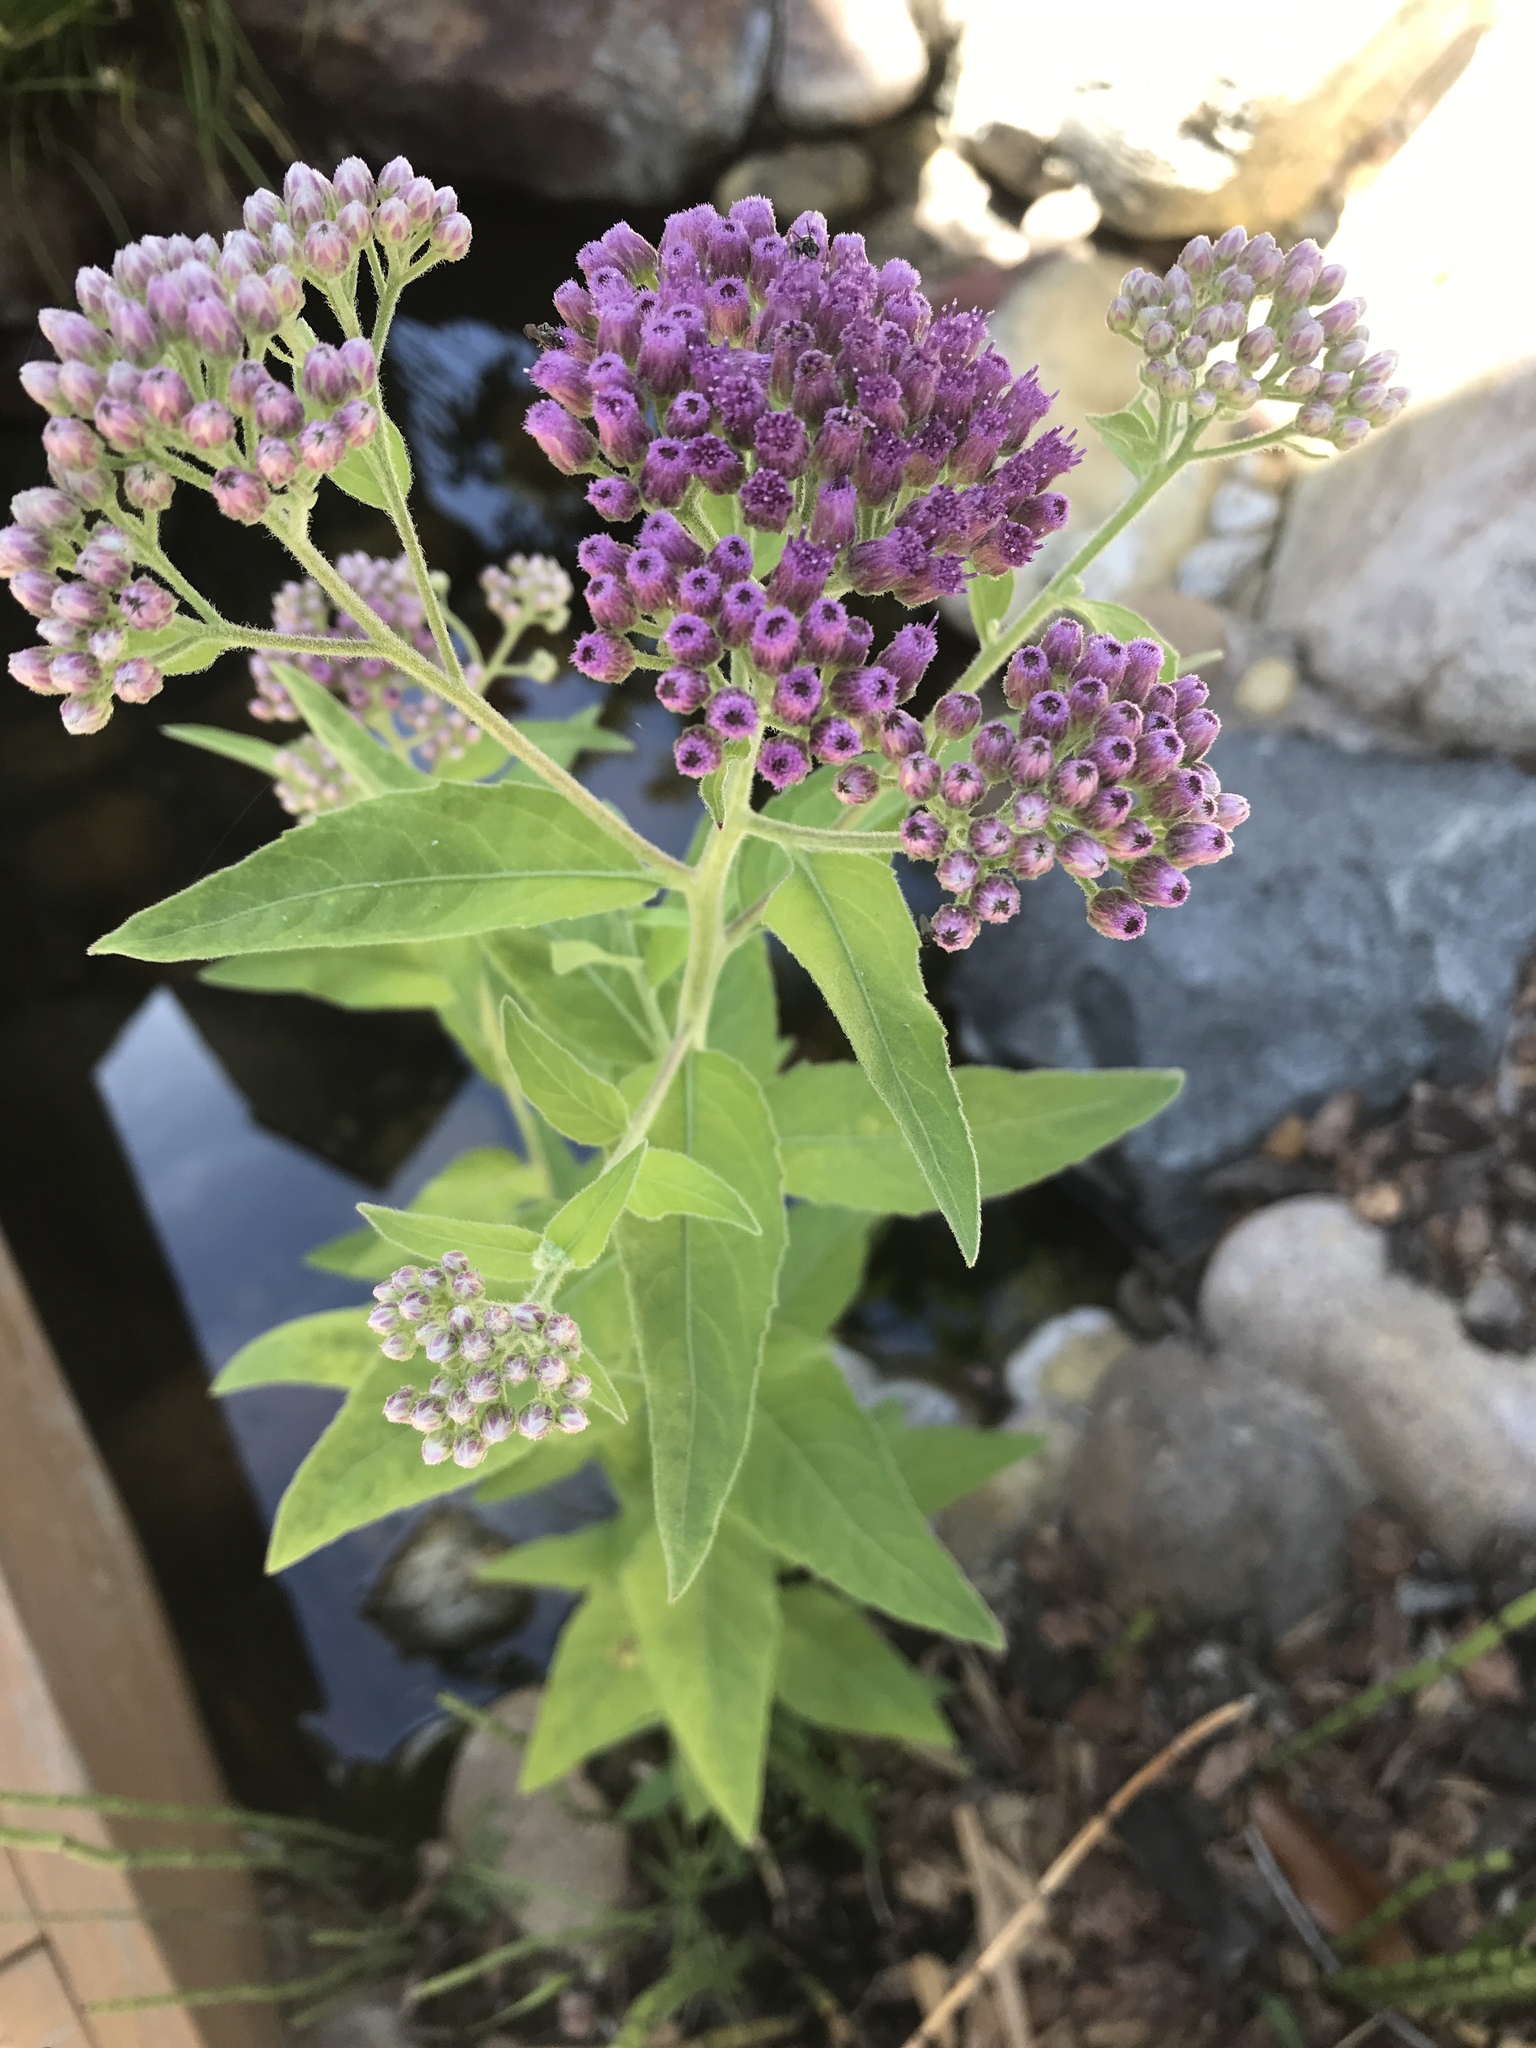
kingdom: Plantae
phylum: Tracheophyta
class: Magnoliopsida
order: Asterales
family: Asteraceae
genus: Pluchea
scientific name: Pluchea odorata
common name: Saltmarsh fleabane
